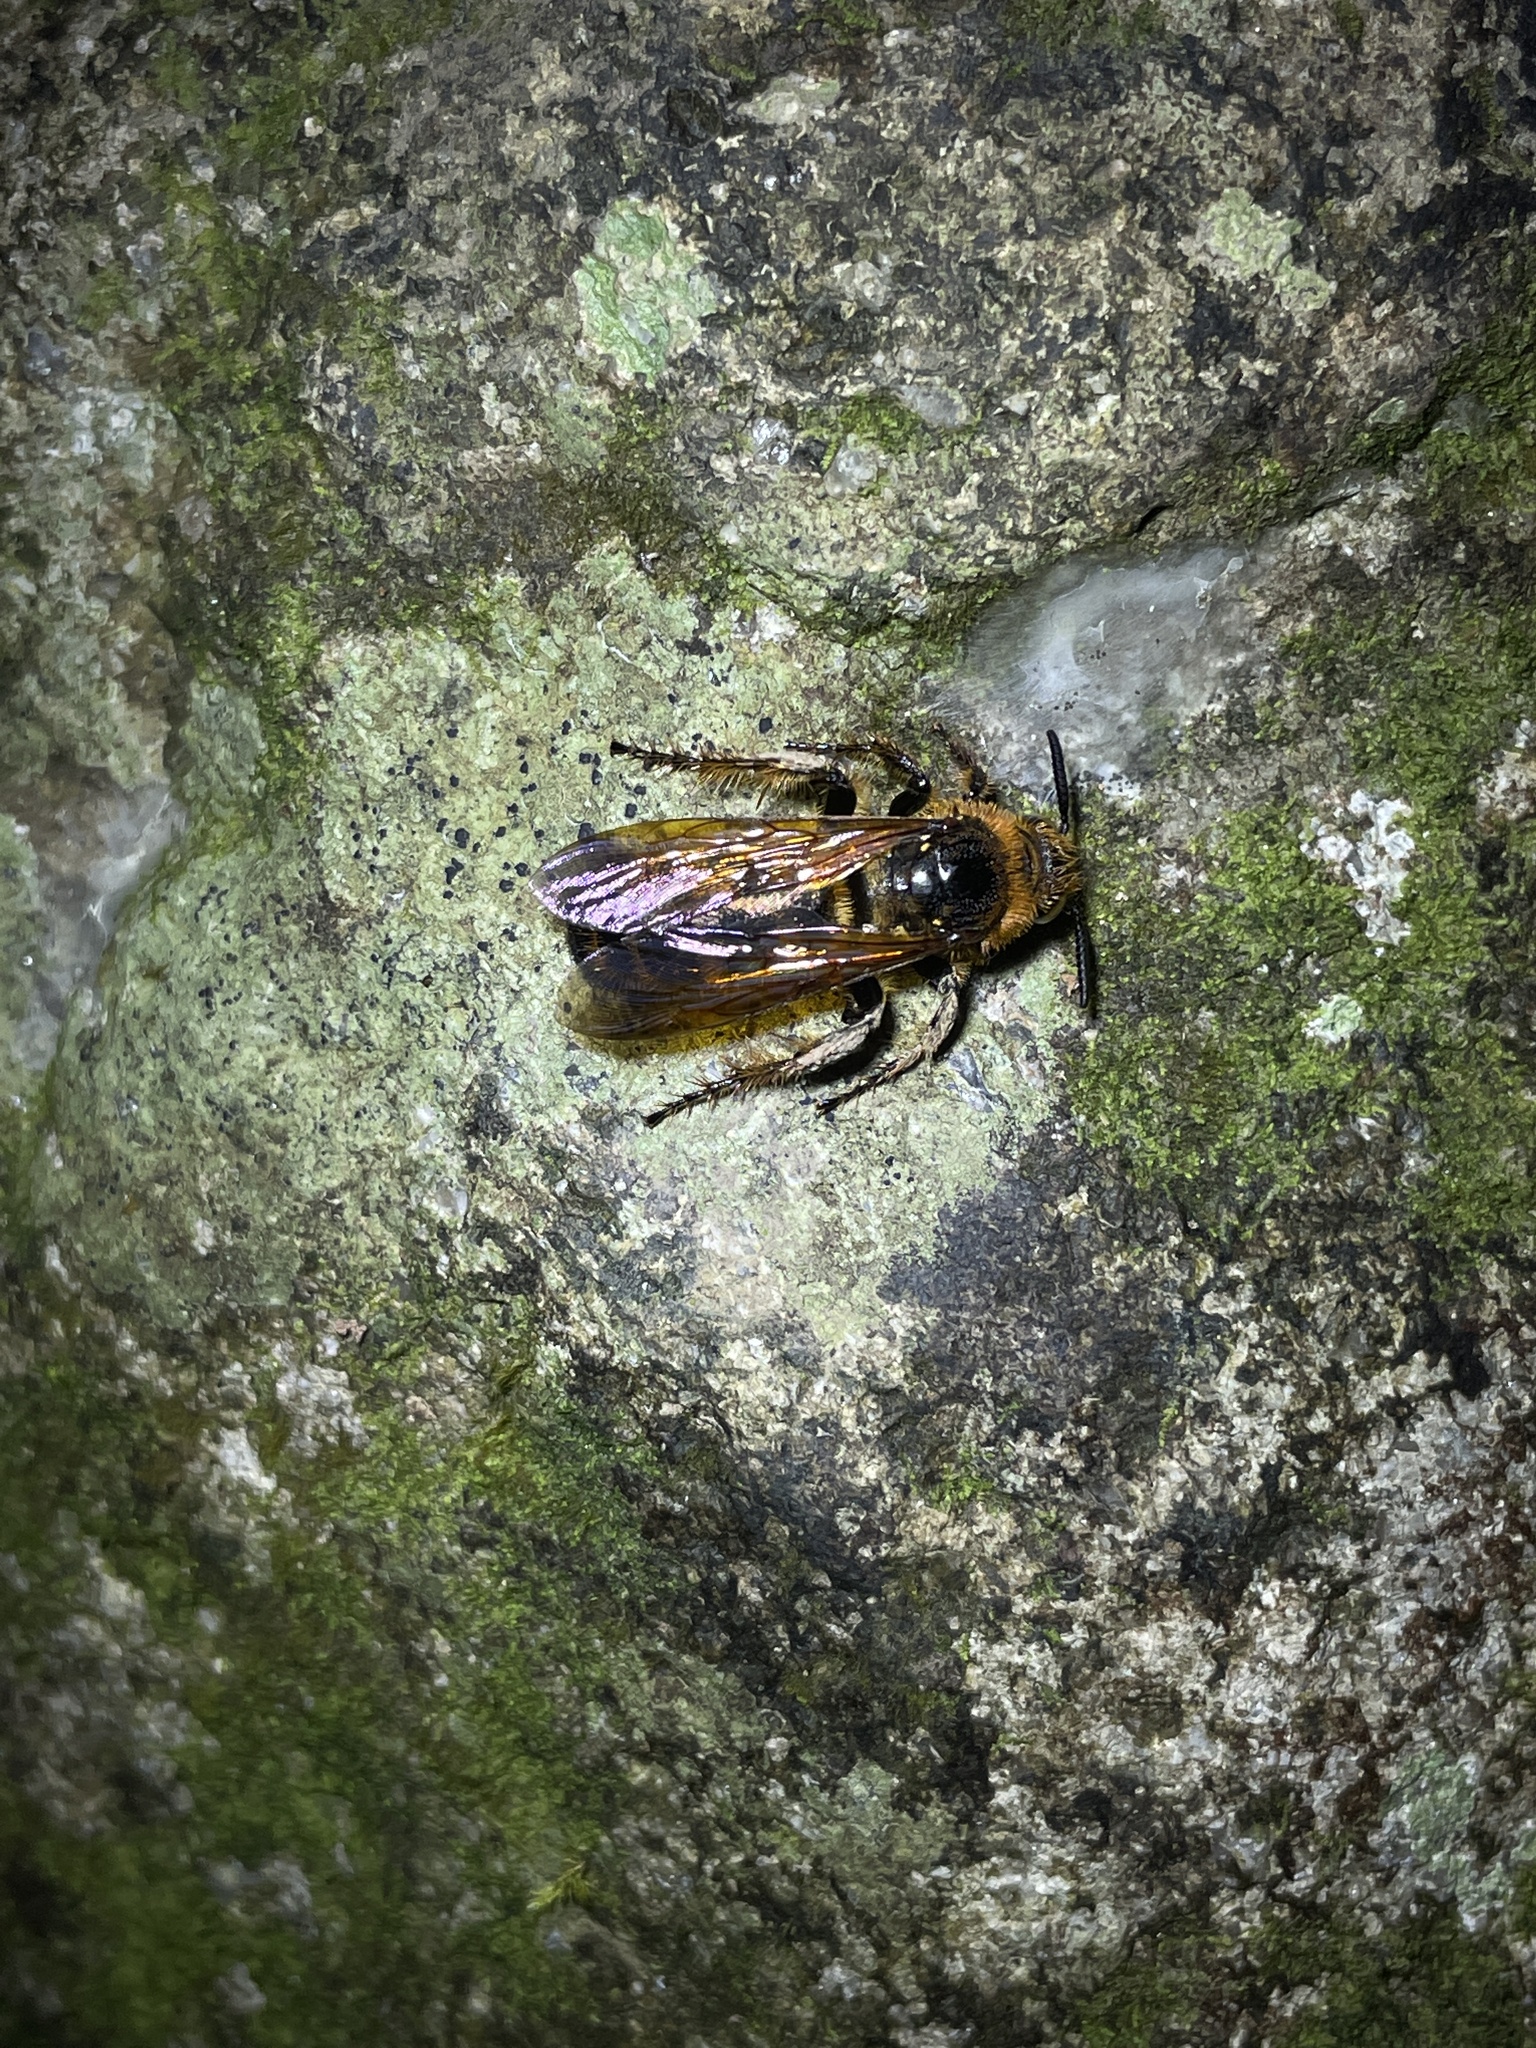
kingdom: Animalia
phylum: Arthropoda
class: Insecta
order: Hymenoptera
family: Scoliidae
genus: Campsomeris
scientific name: Campsomeris phalerata
